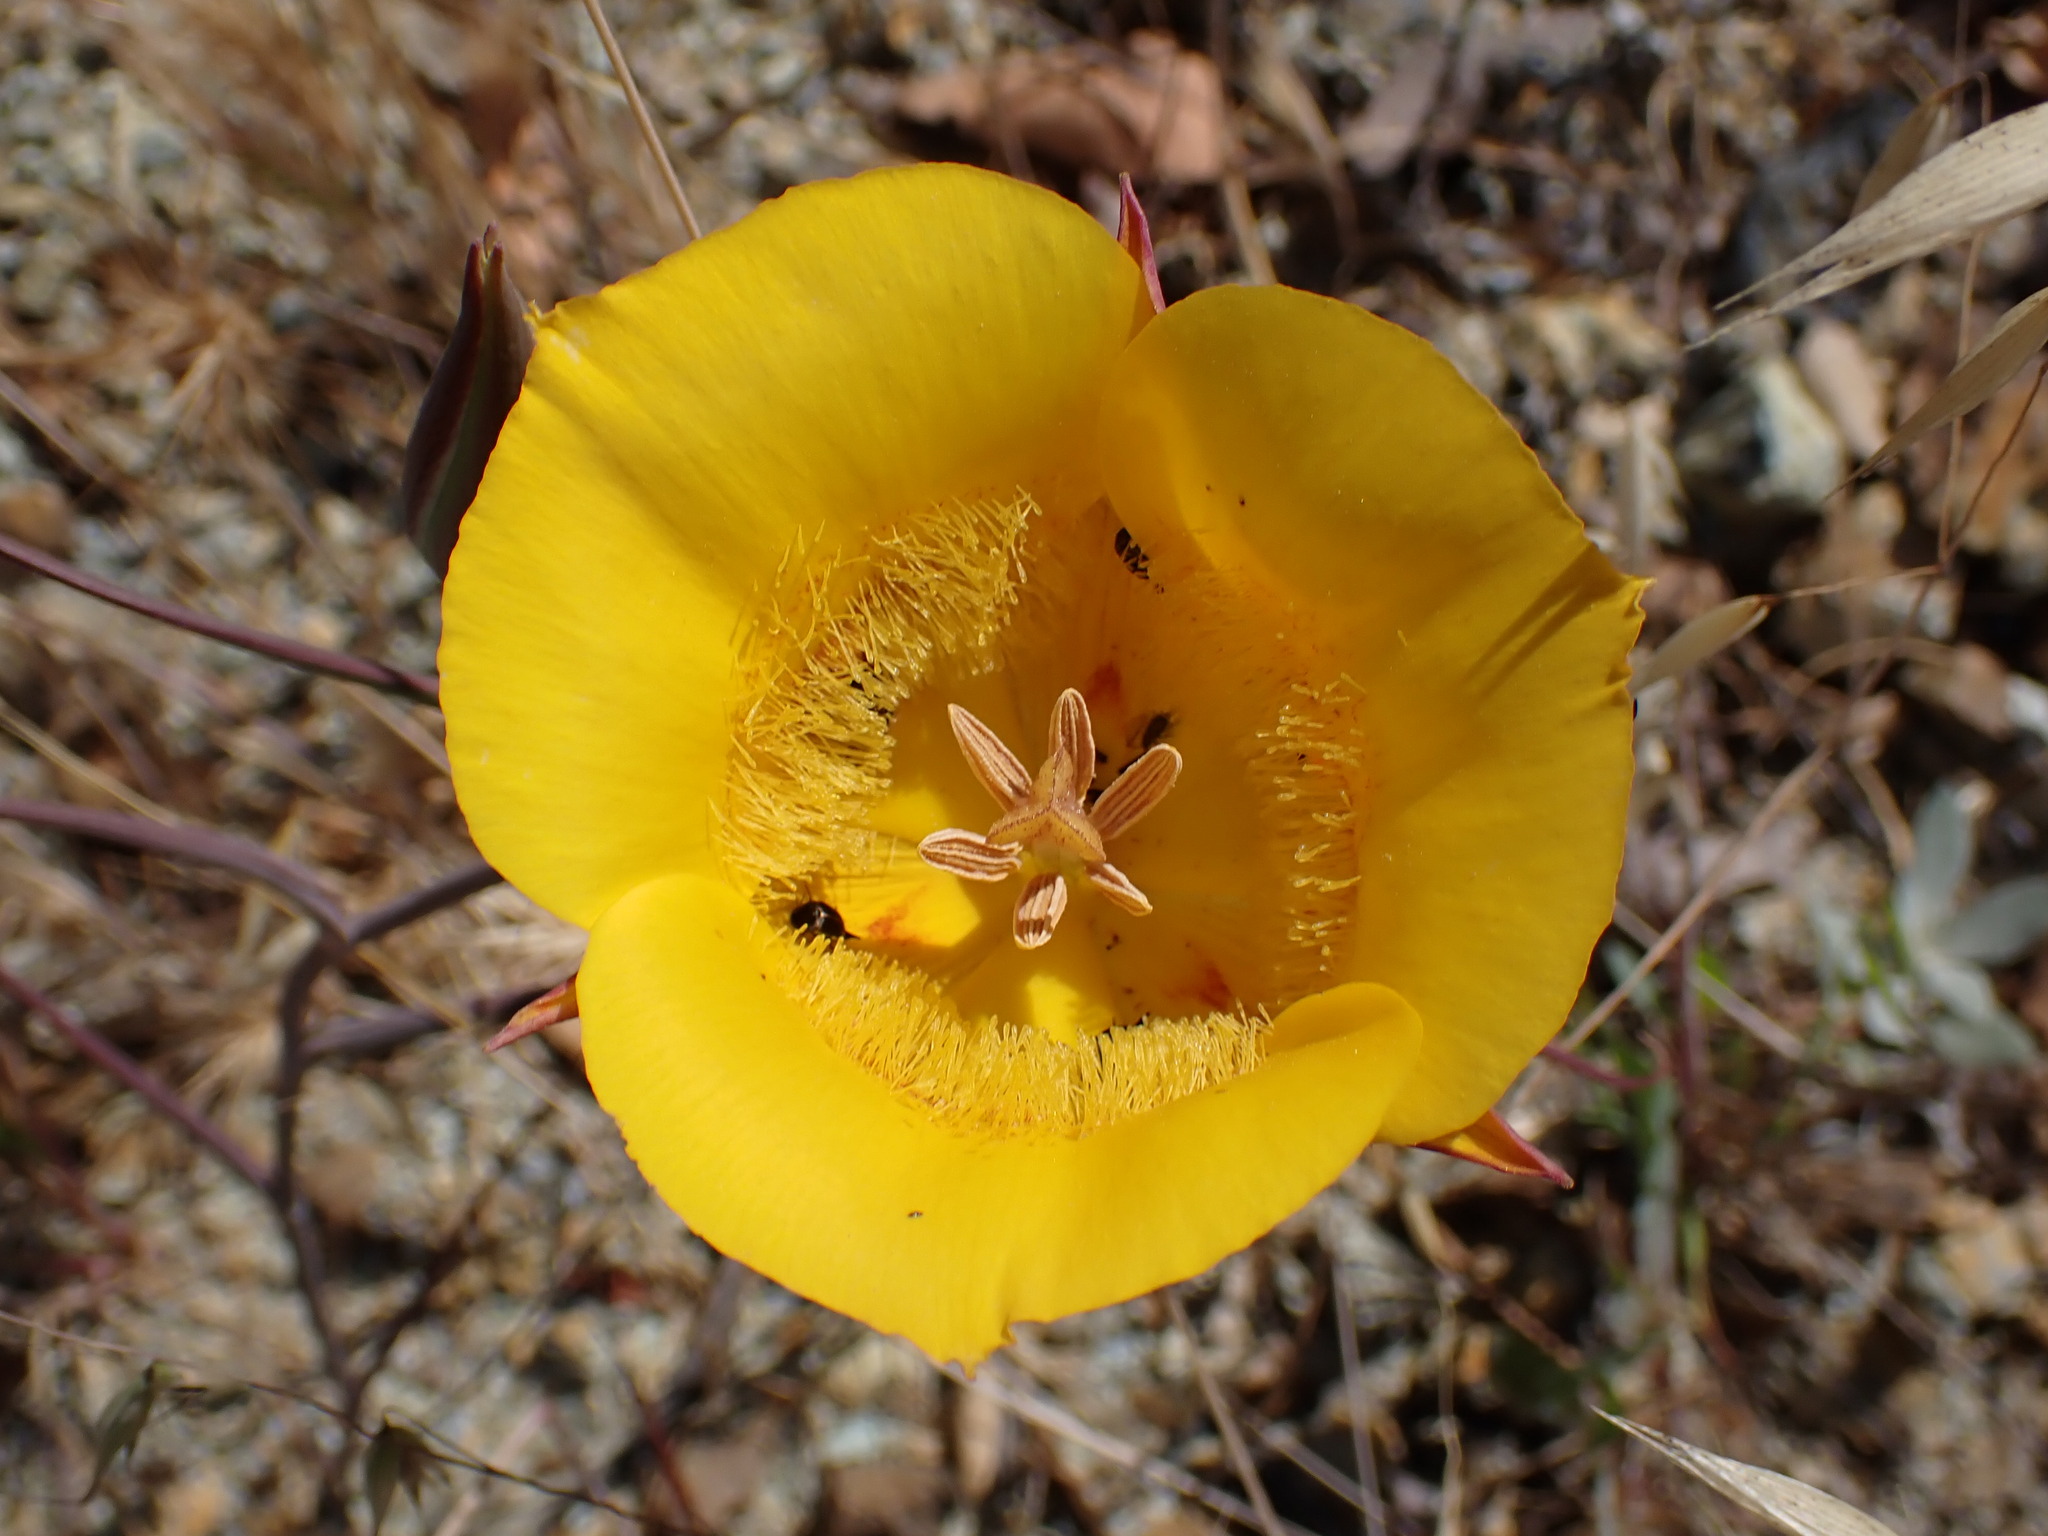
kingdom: Plantae
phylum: Tracheophyta
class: Liliopsida
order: Liliales
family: Liliaceae
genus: Calochortus
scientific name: Calochortus clavatus
